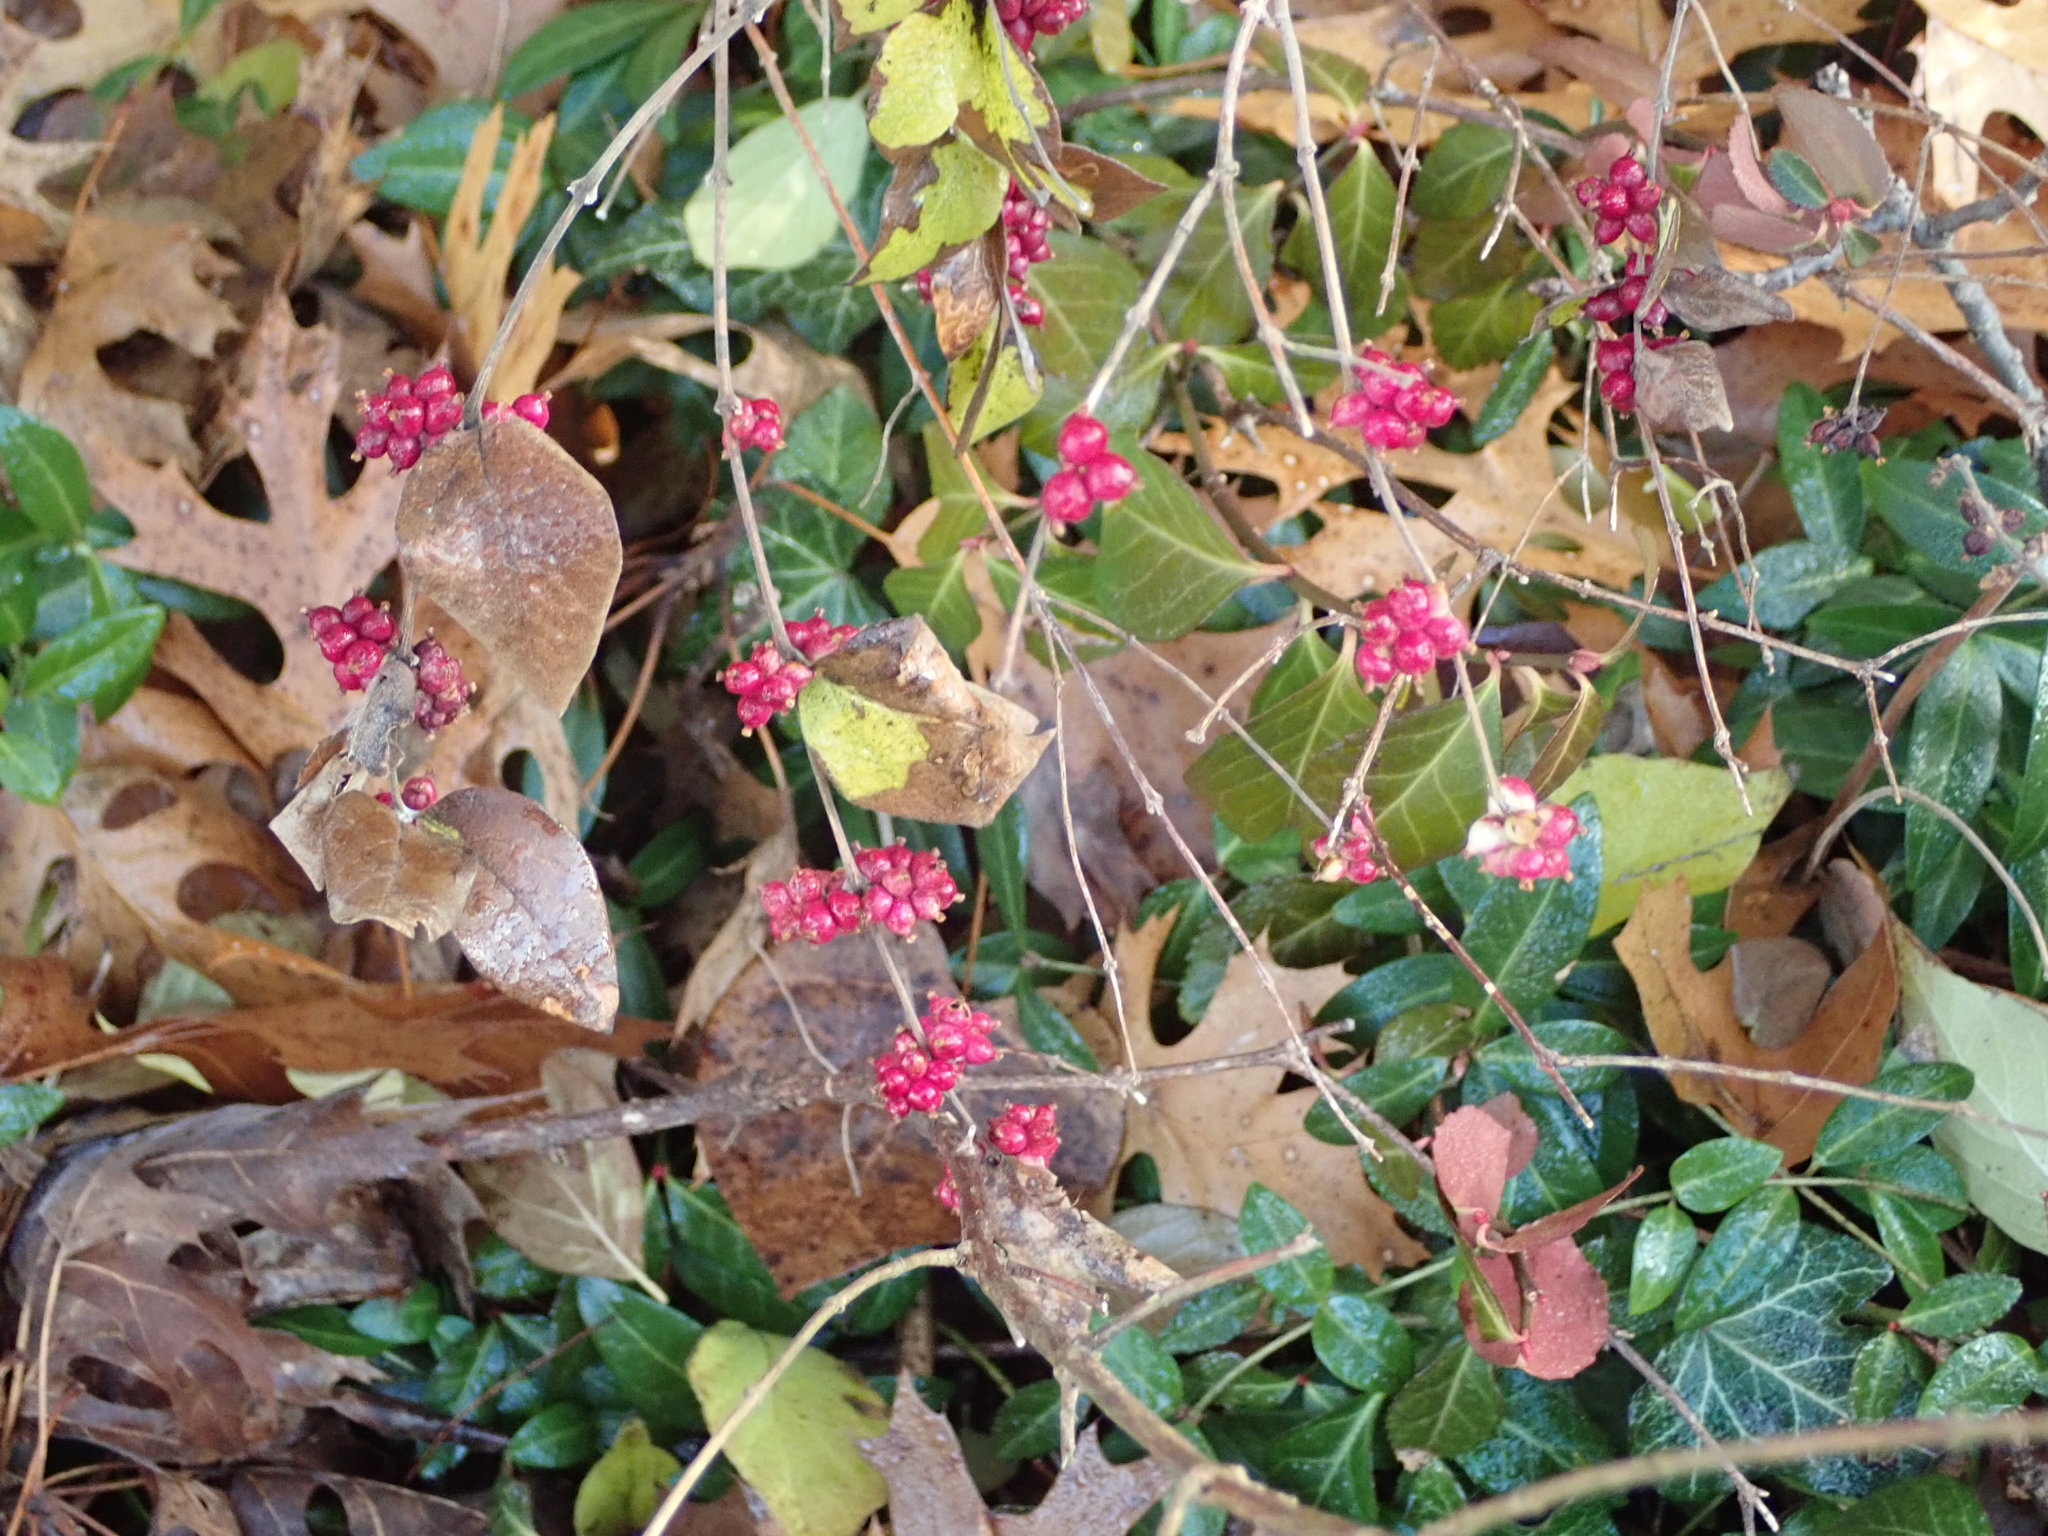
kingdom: Plantae
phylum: Tracheophyta
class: Magnoliopsida
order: Dipsacales
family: Caprifoliaceae
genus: Symphoricarpos
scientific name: Symphoricarpos orbiculatus
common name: Coralberry
